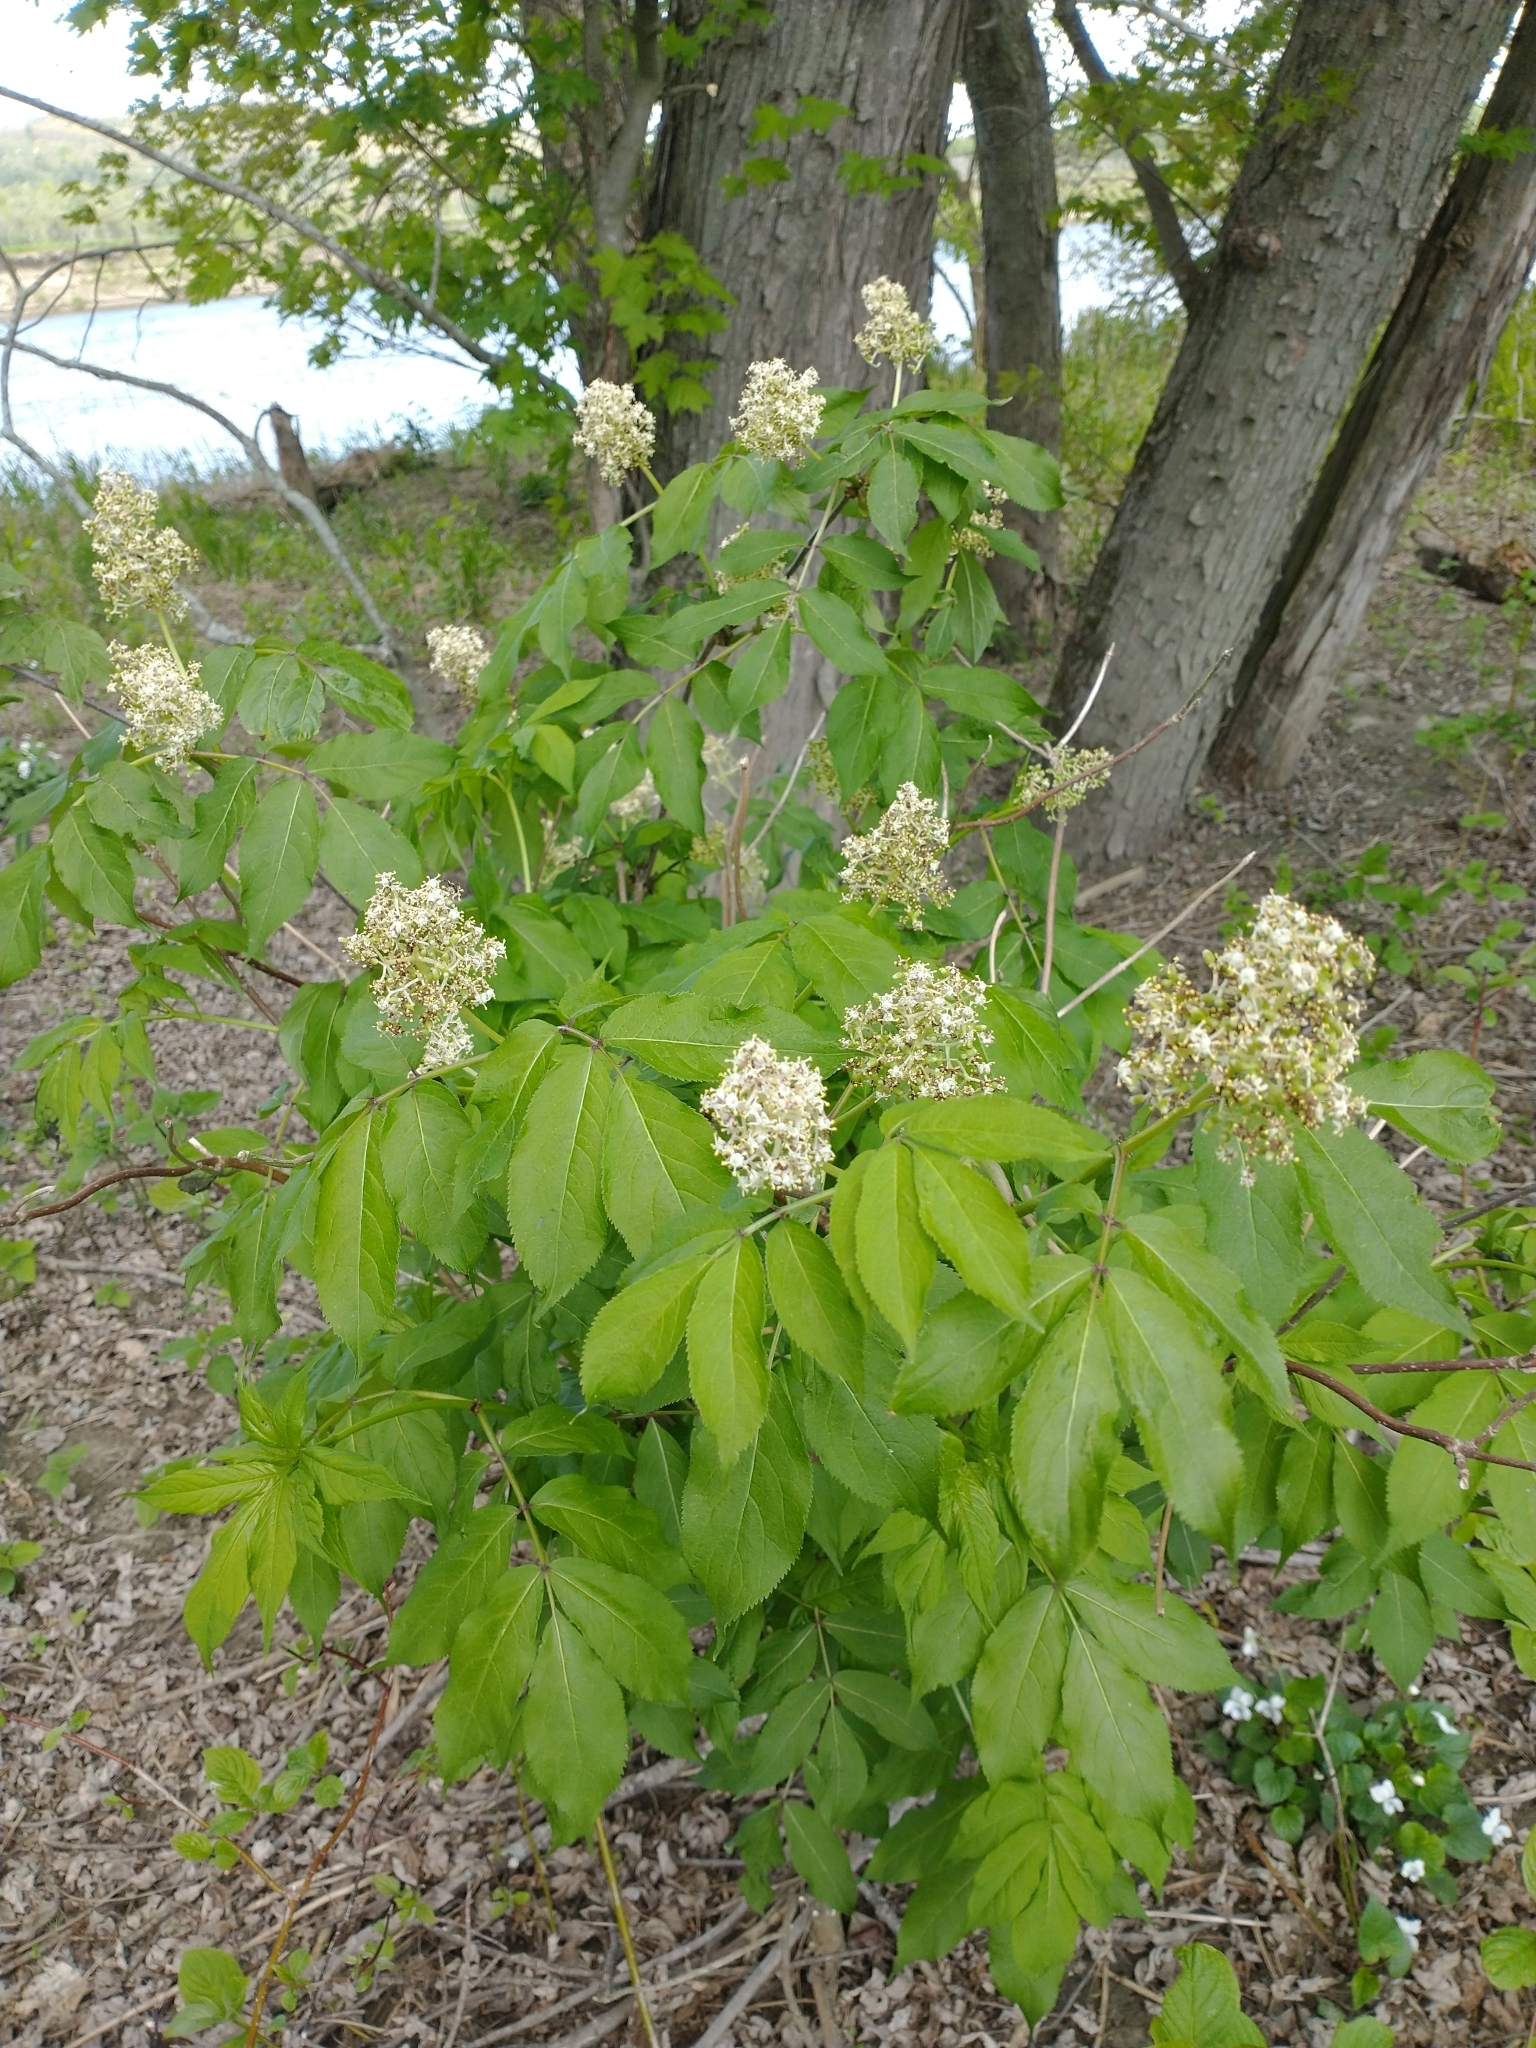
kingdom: Plantae
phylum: Tracheophyta
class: Magnoliopsida
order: Dipsacales
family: Viburnaceae
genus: Sambucus
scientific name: Sambucus racemosa
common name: Red-berried elder
